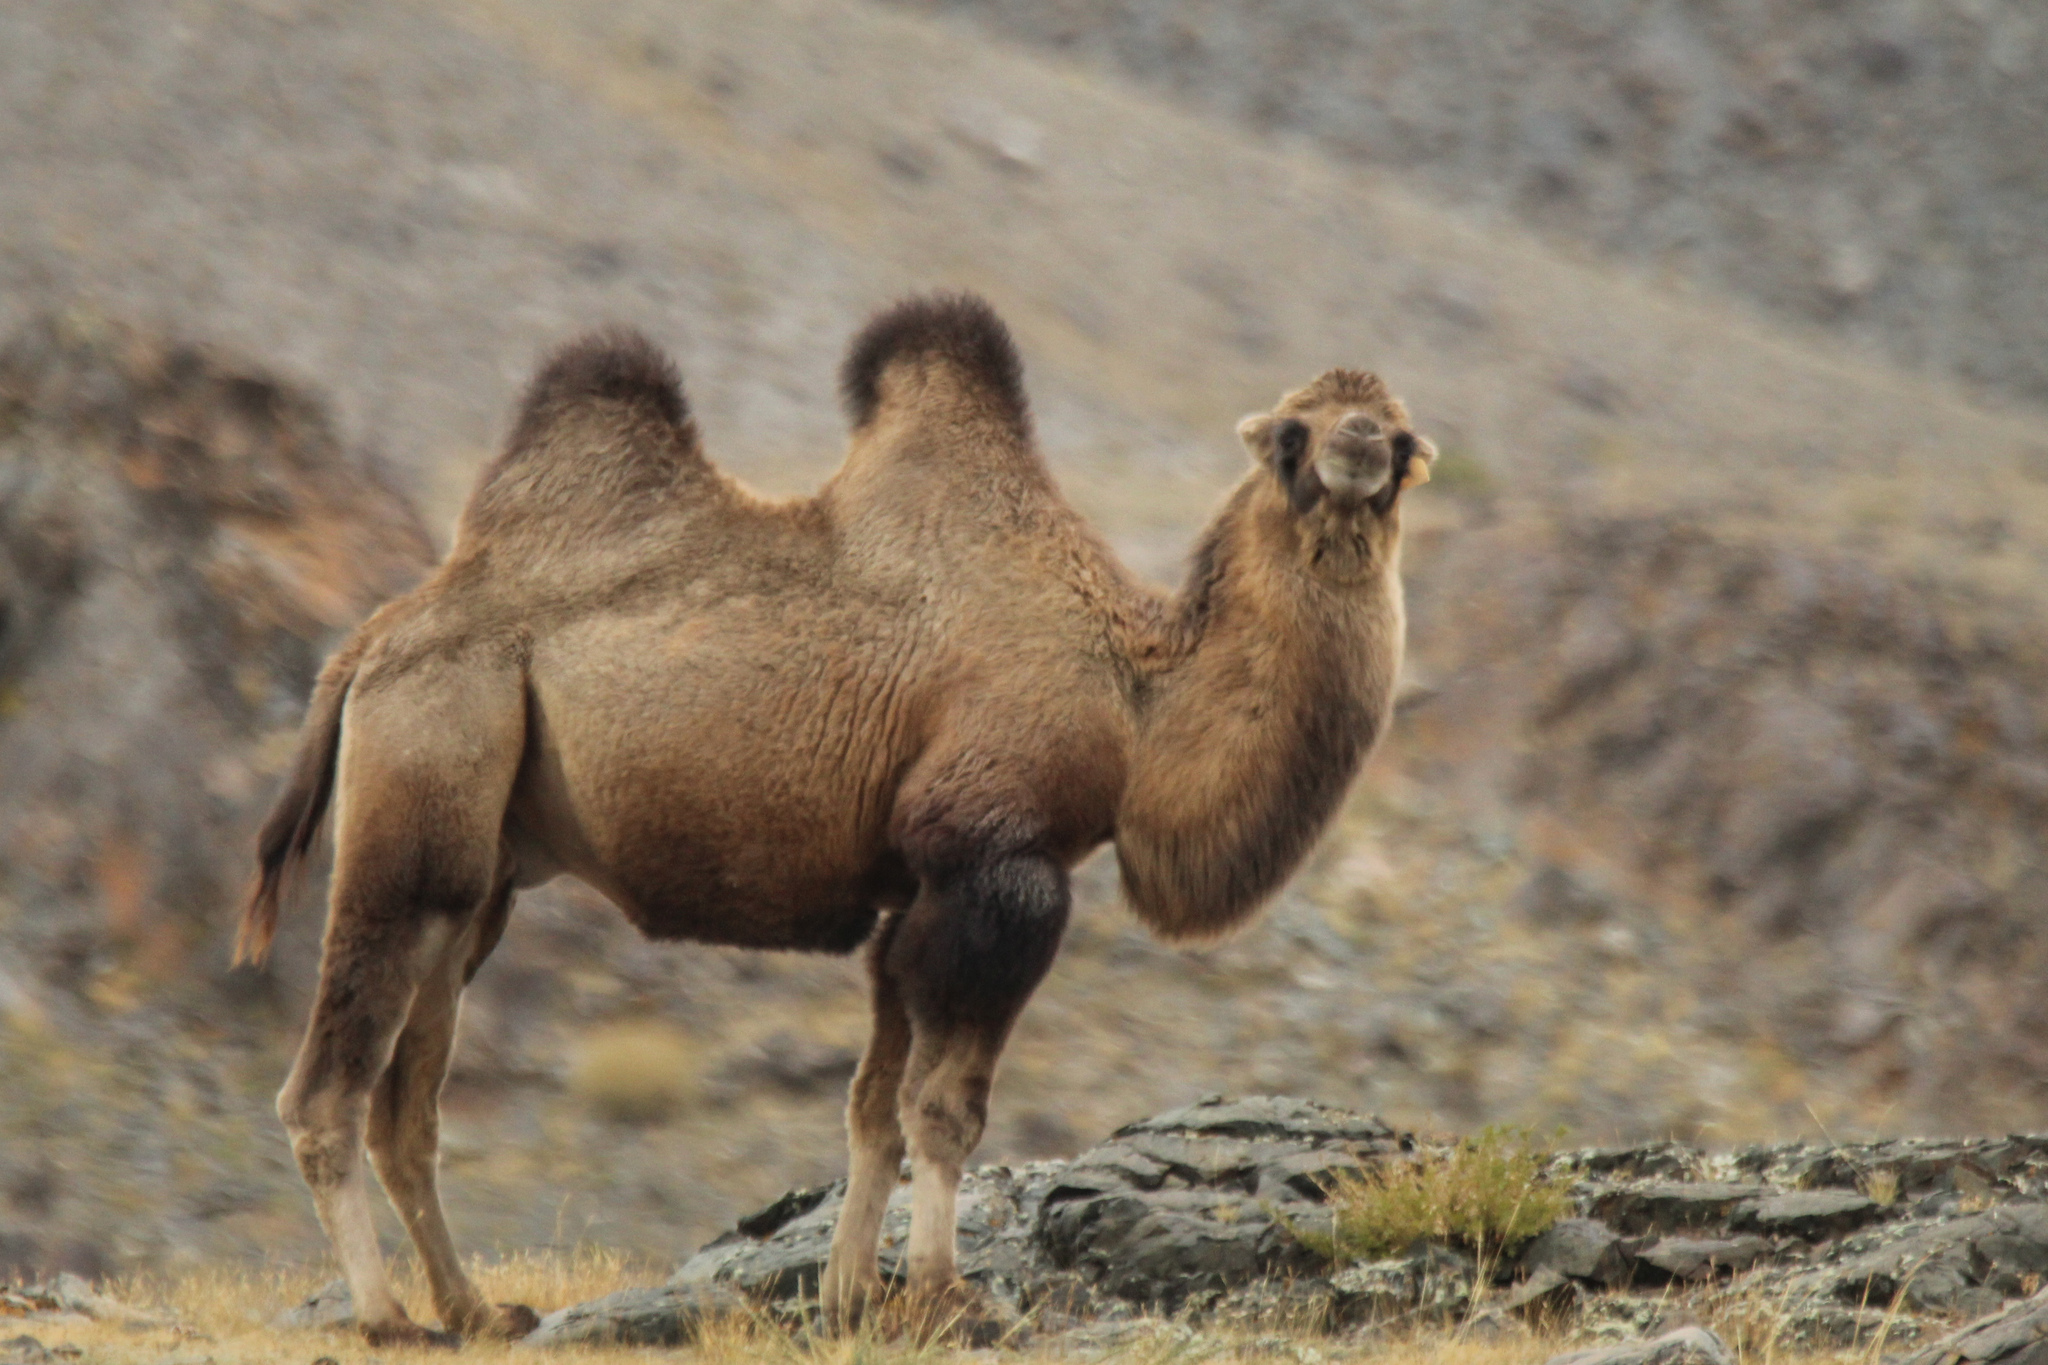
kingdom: Animalia
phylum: Chordata
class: Mammalia
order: Artiodactyla
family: Camelidae
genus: Camelus
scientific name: Camelus bactrianus
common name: Bactrian camel
